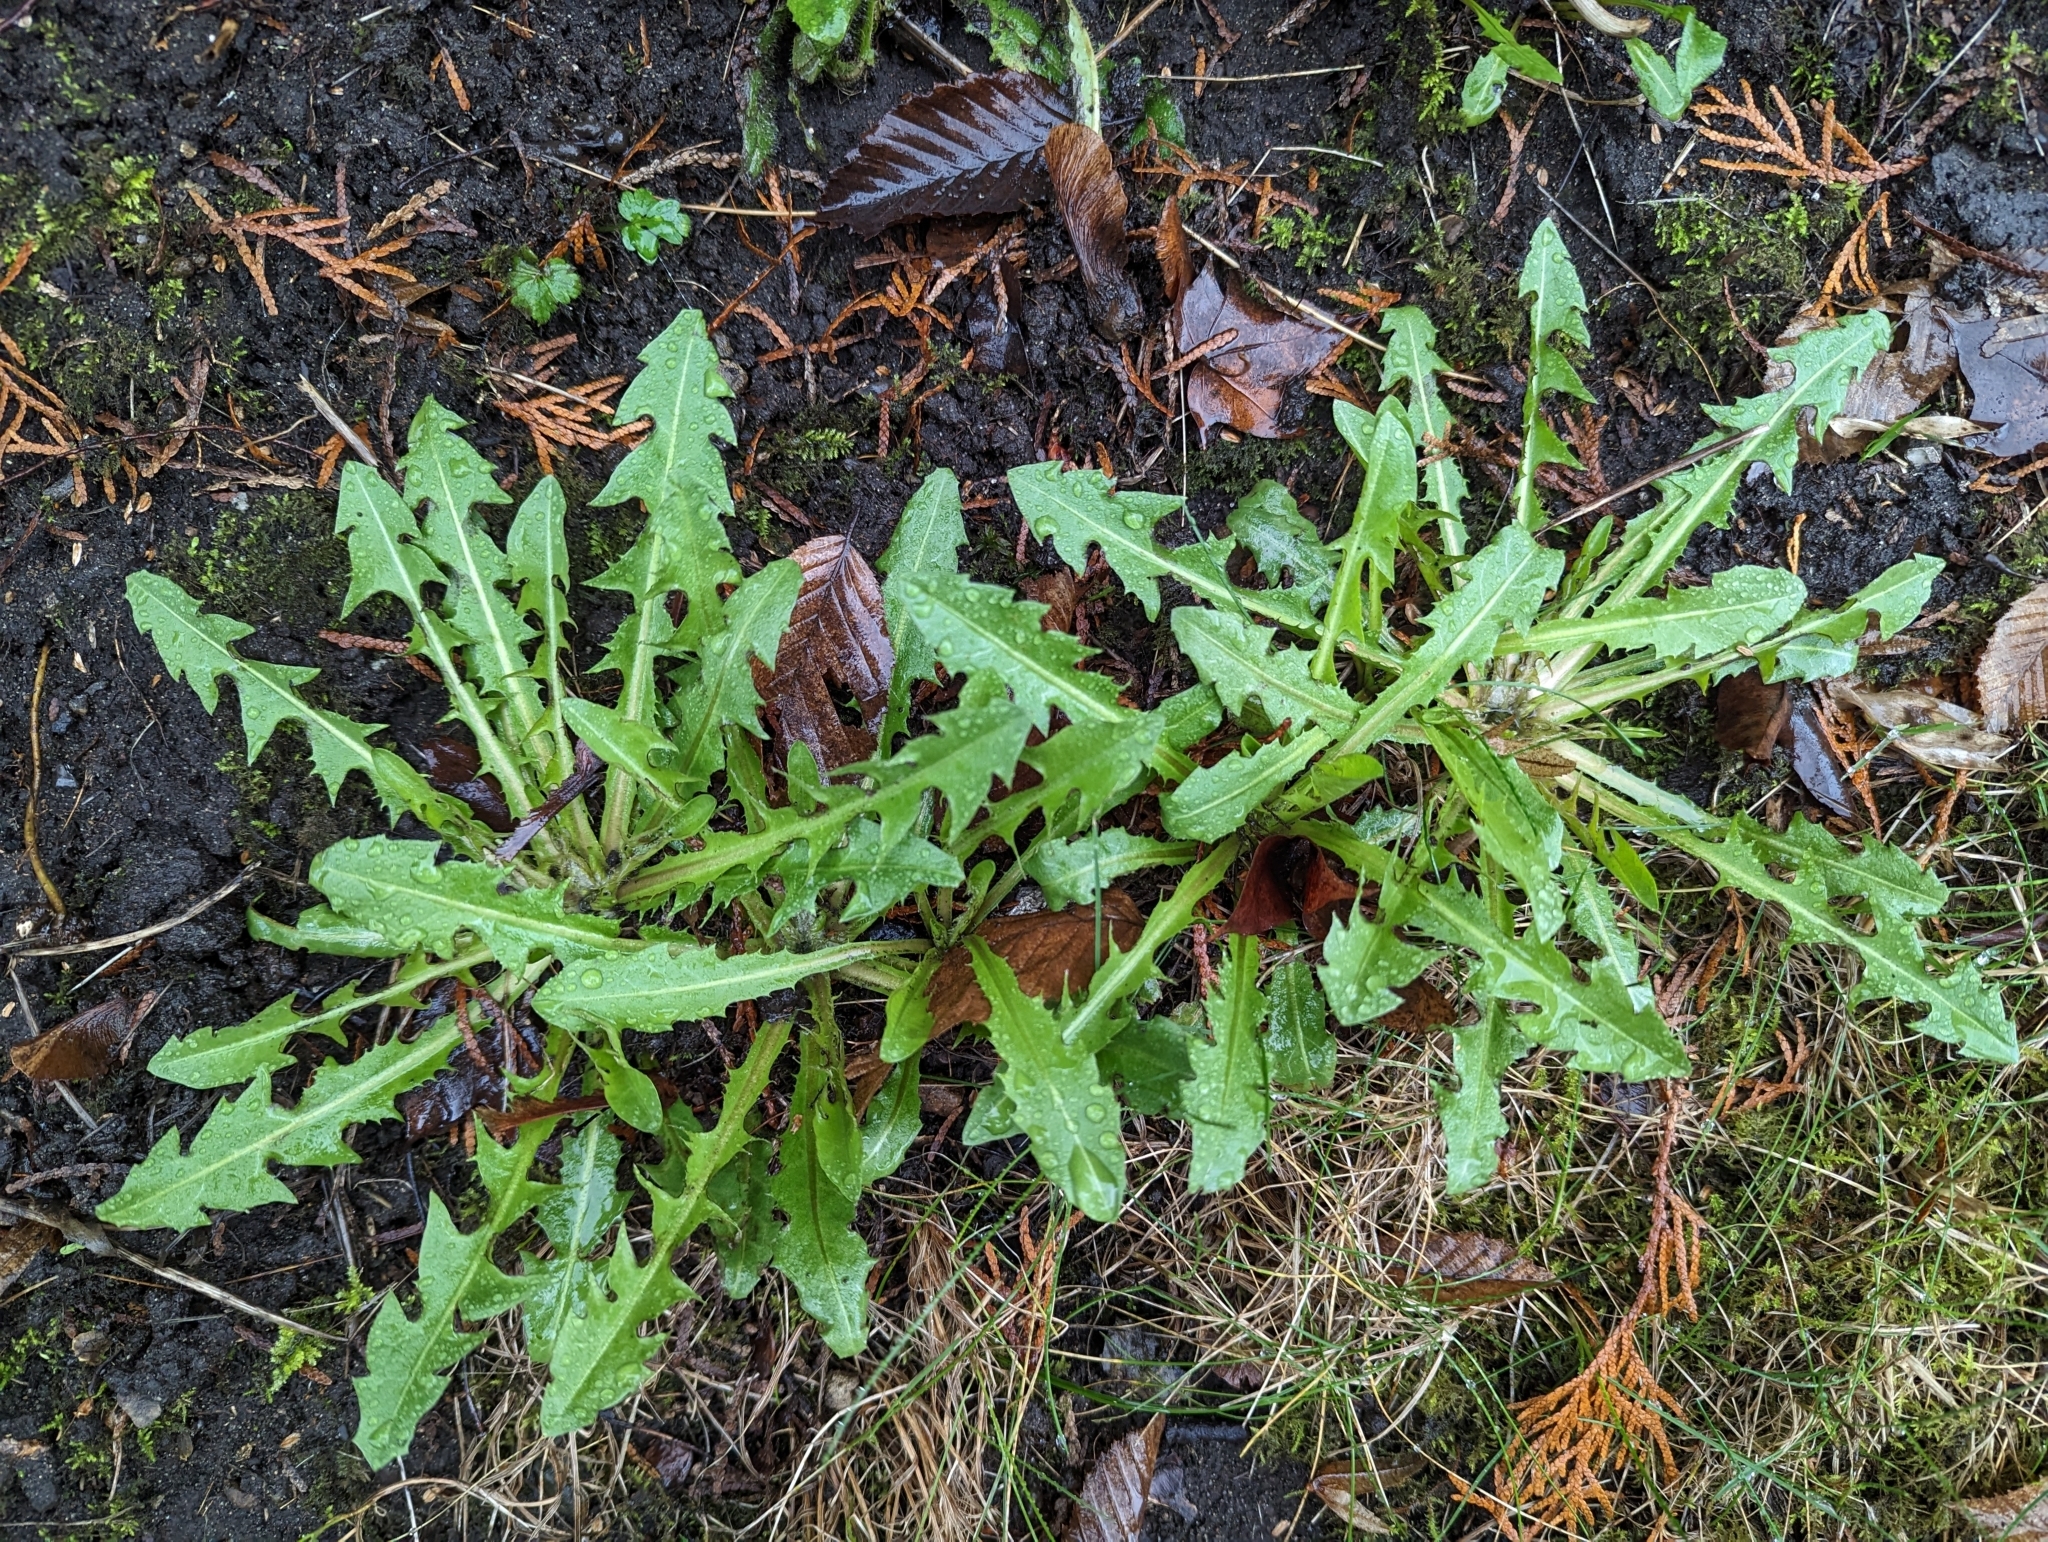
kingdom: Plantae
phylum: Tracheophyta
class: Magnoliopsida
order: Asterales
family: Asteraceae
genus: Taraxacum
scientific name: Taraxacum officinale
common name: Common dandelion
